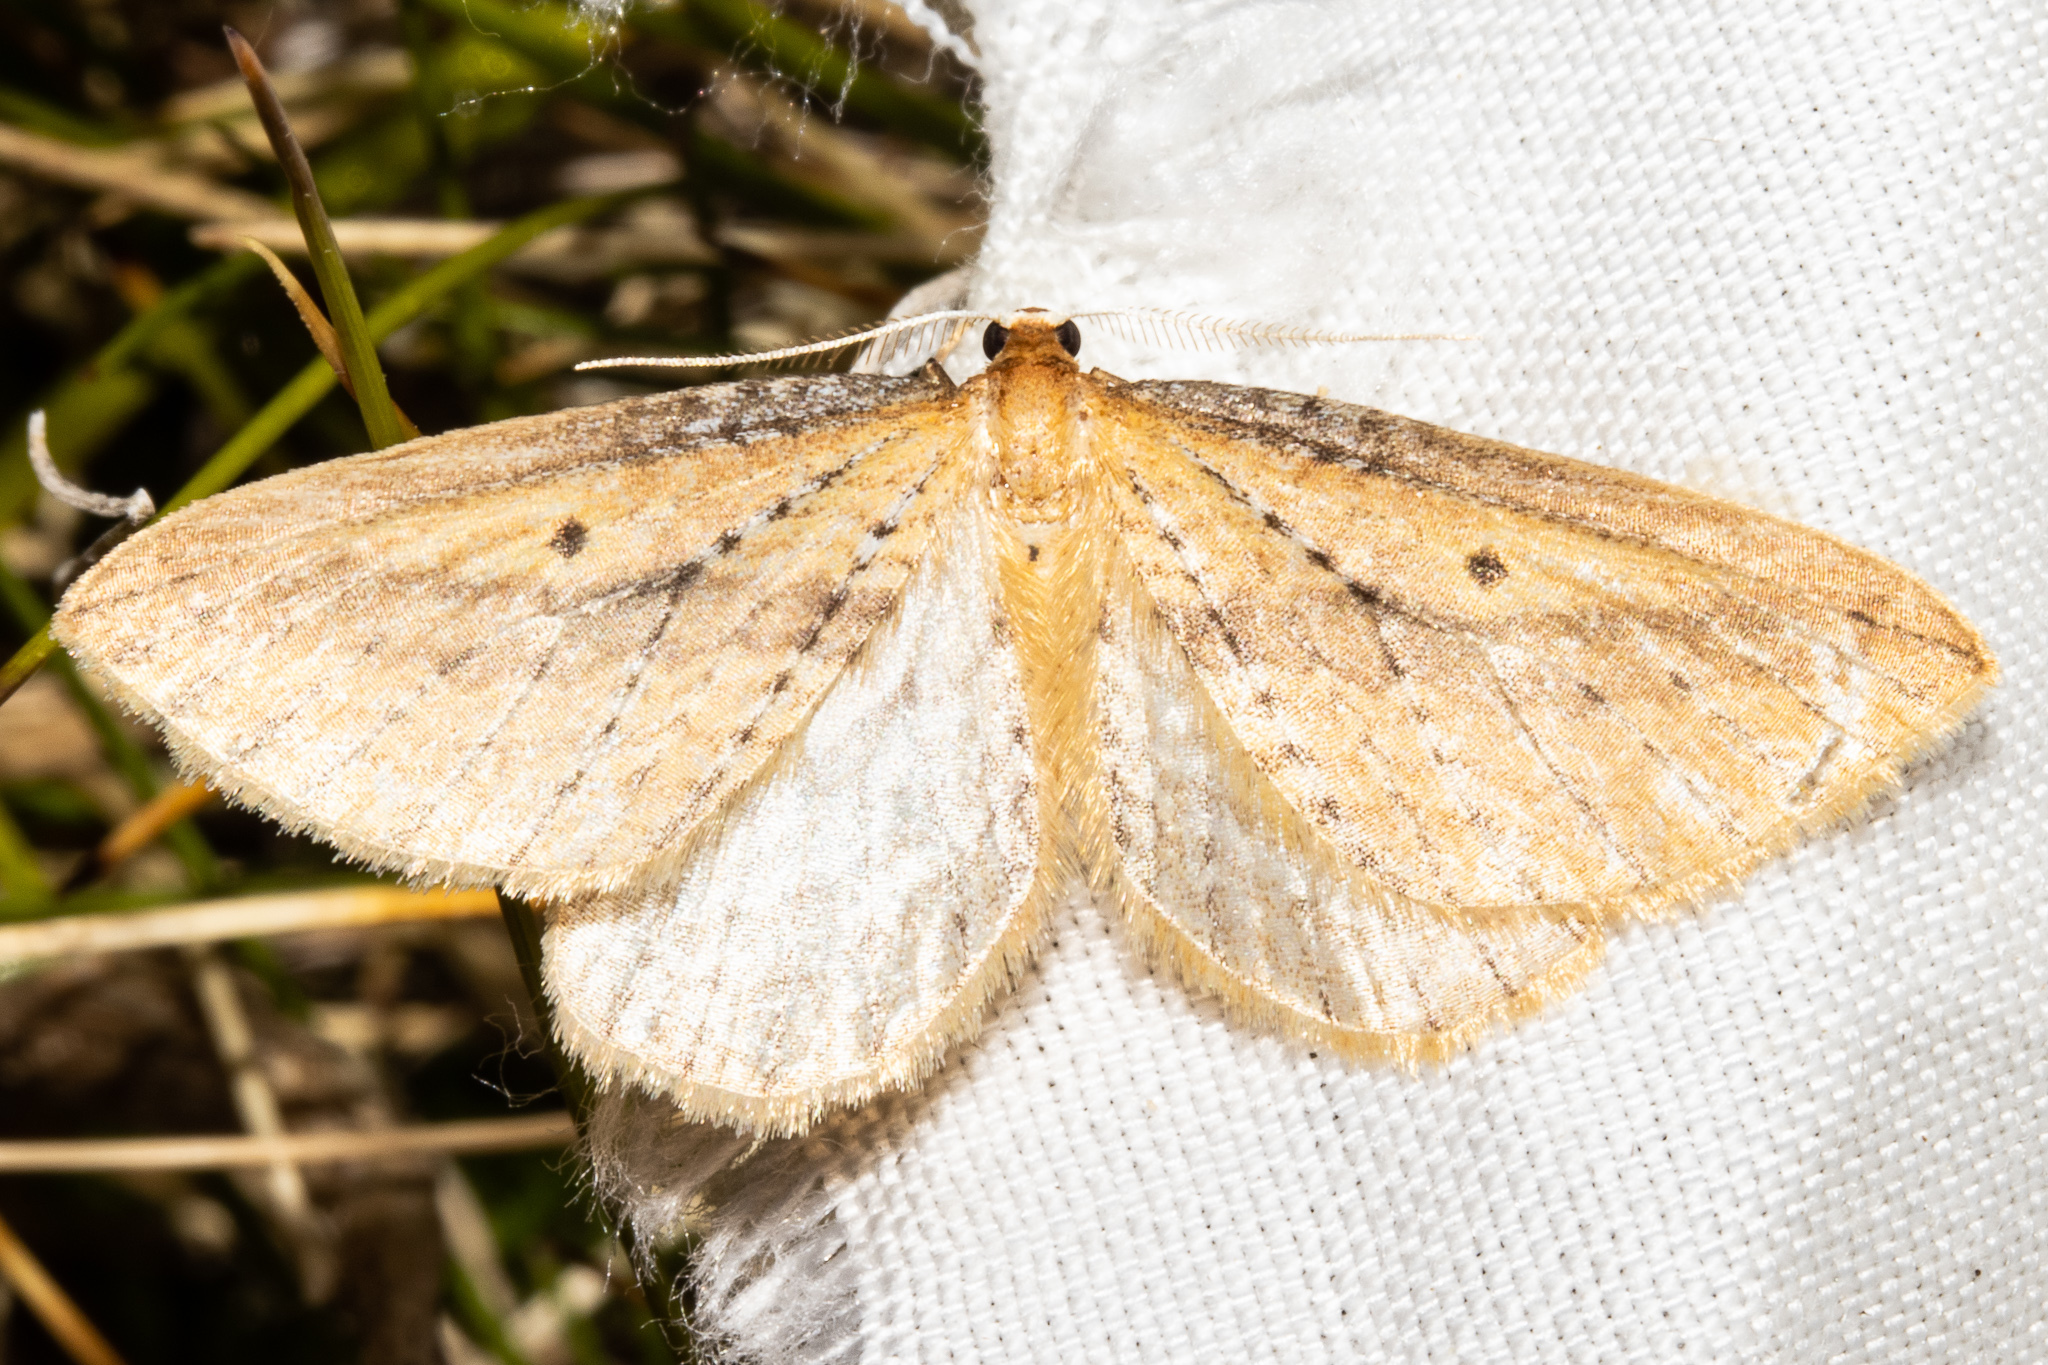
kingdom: Animalia
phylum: Arthropoda
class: Insecta
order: Lepidoptera
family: Geometridae
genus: Epiphryne
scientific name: Epiphryne charidema
